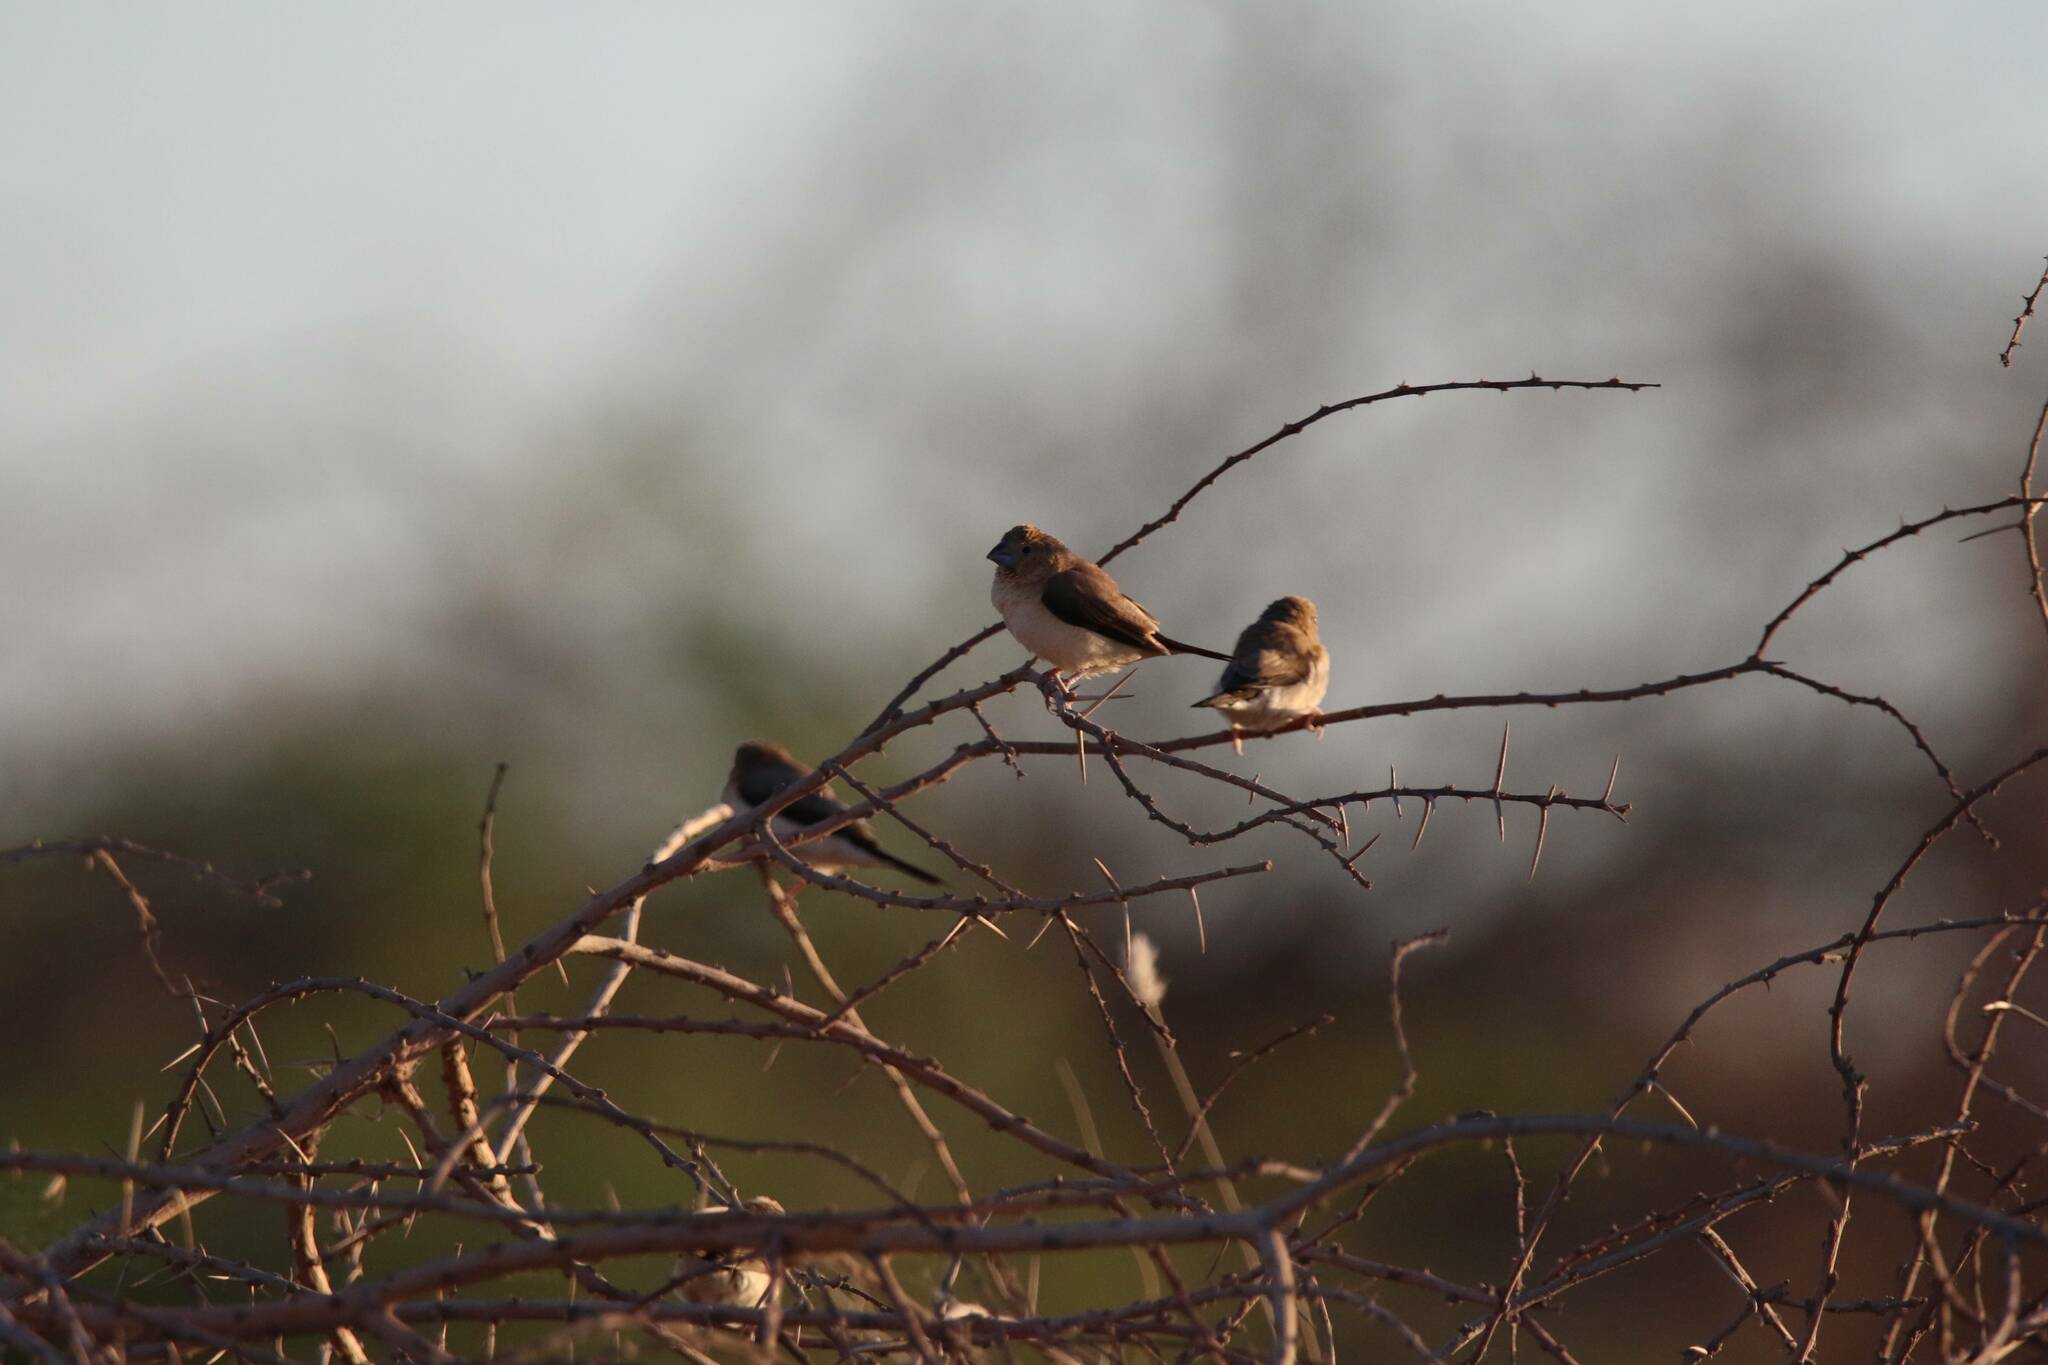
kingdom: Animalia
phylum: Chordata
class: Aves
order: Passeriformes
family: Estrildidae
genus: Euodice
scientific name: Euodice cantans
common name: African silverbill
